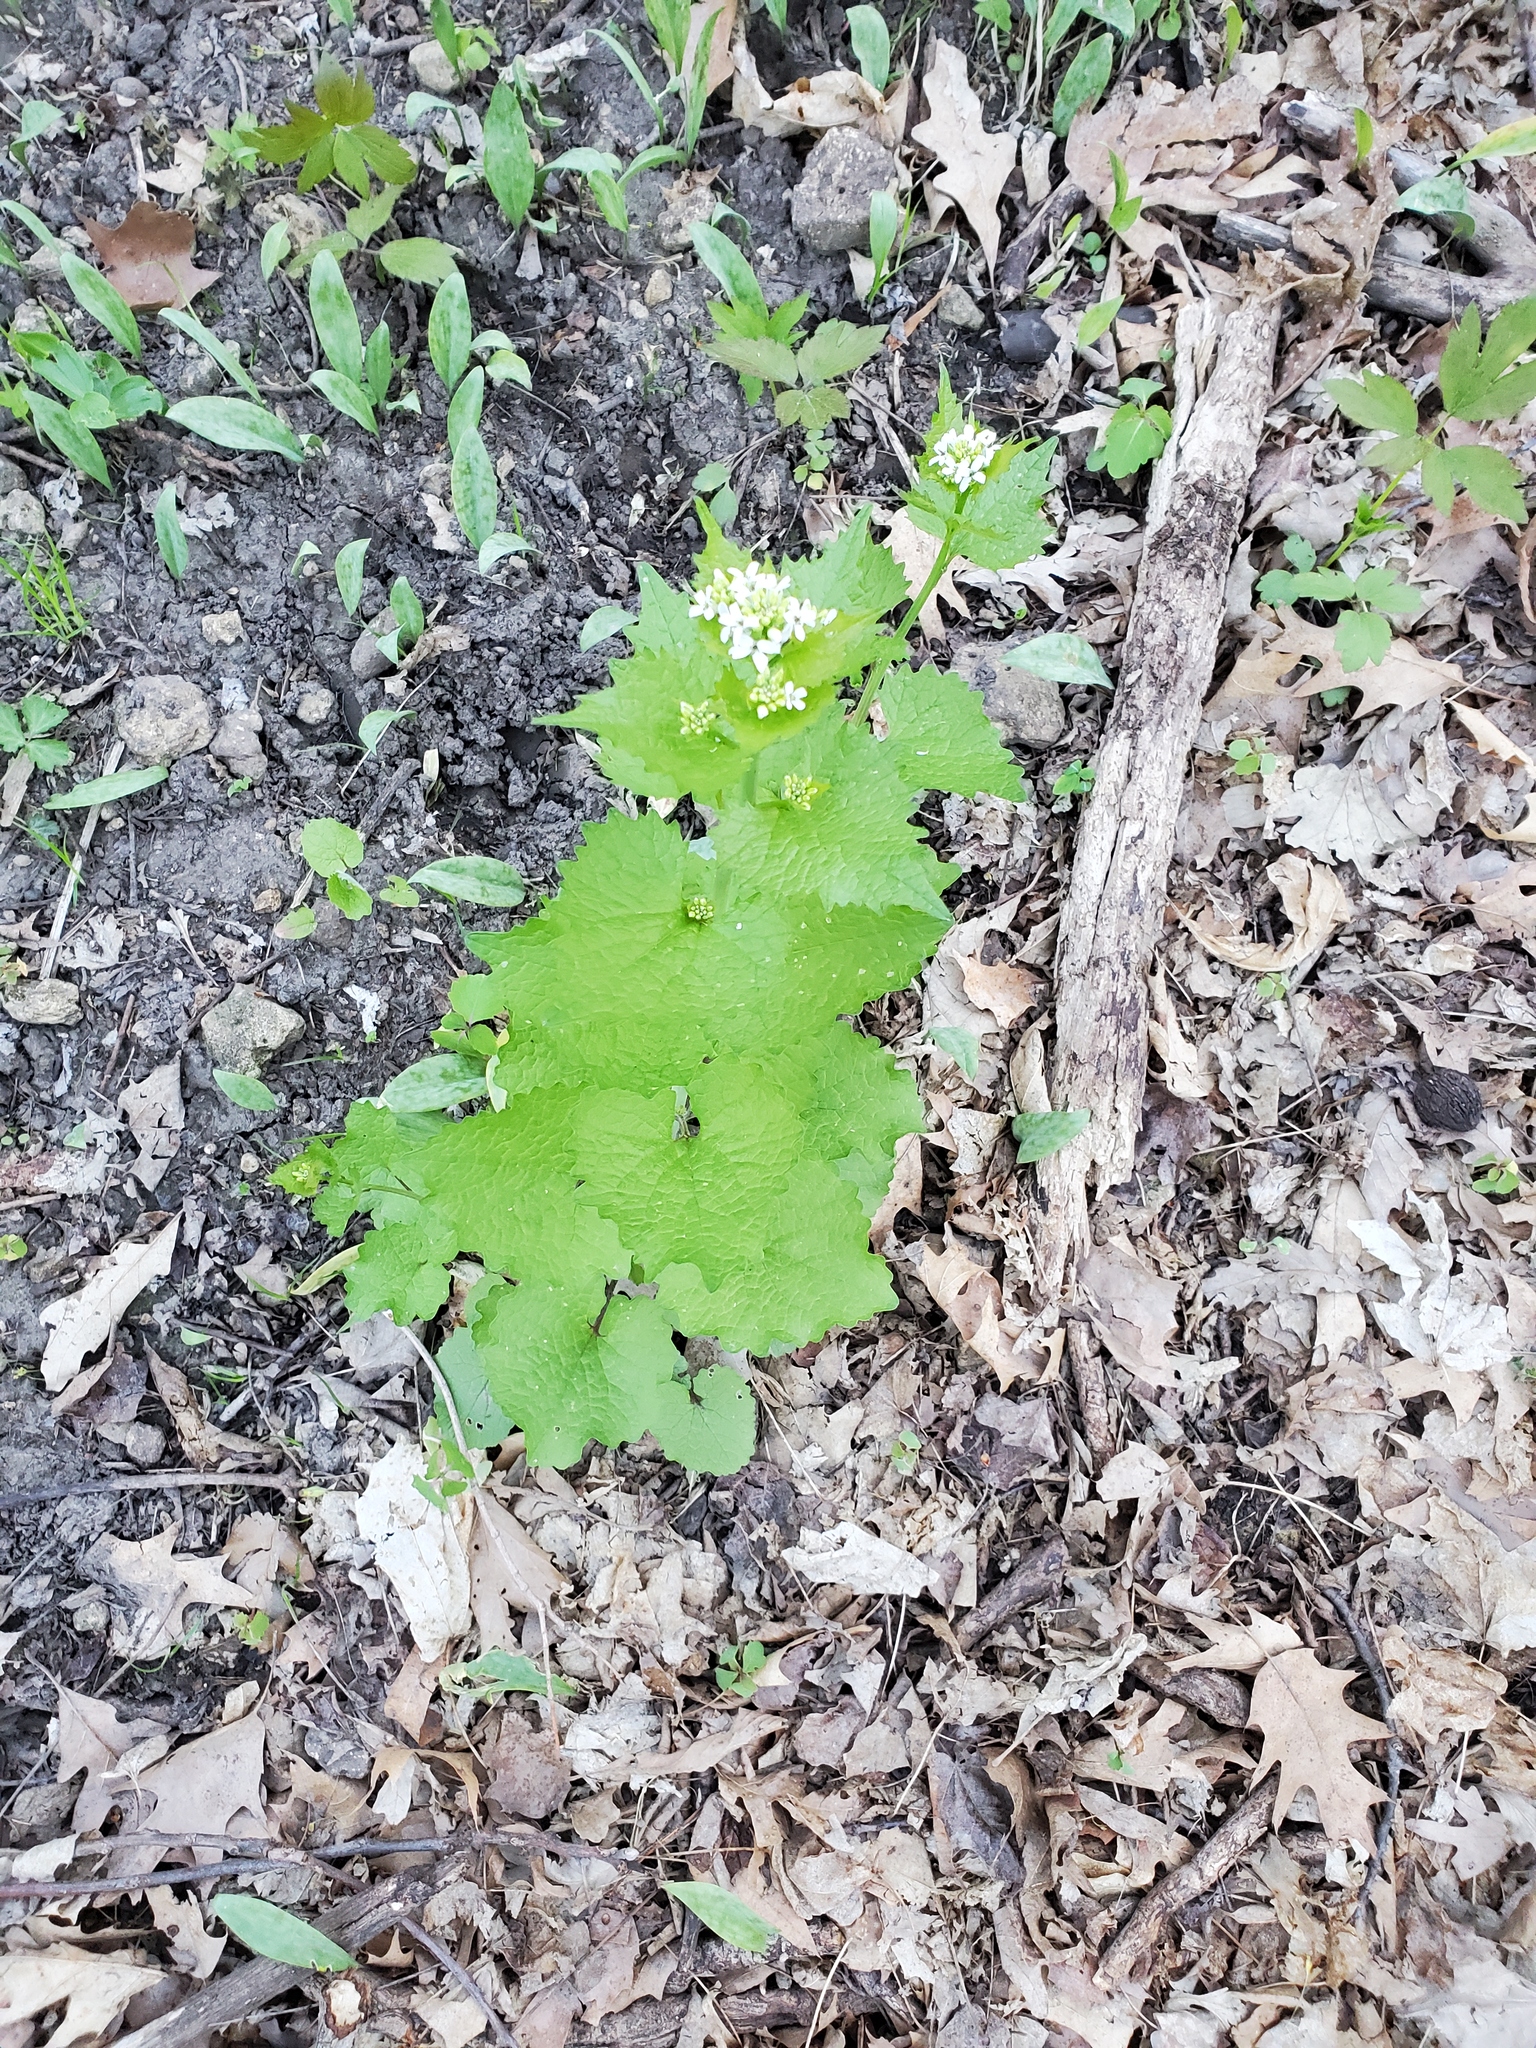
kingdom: Plantae
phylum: Tracheophyta
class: Magnoliopsida
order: Brassicales
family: Brassicaceae
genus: Alliaria
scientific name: Alliaria petiolata
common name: Garlic mustard
